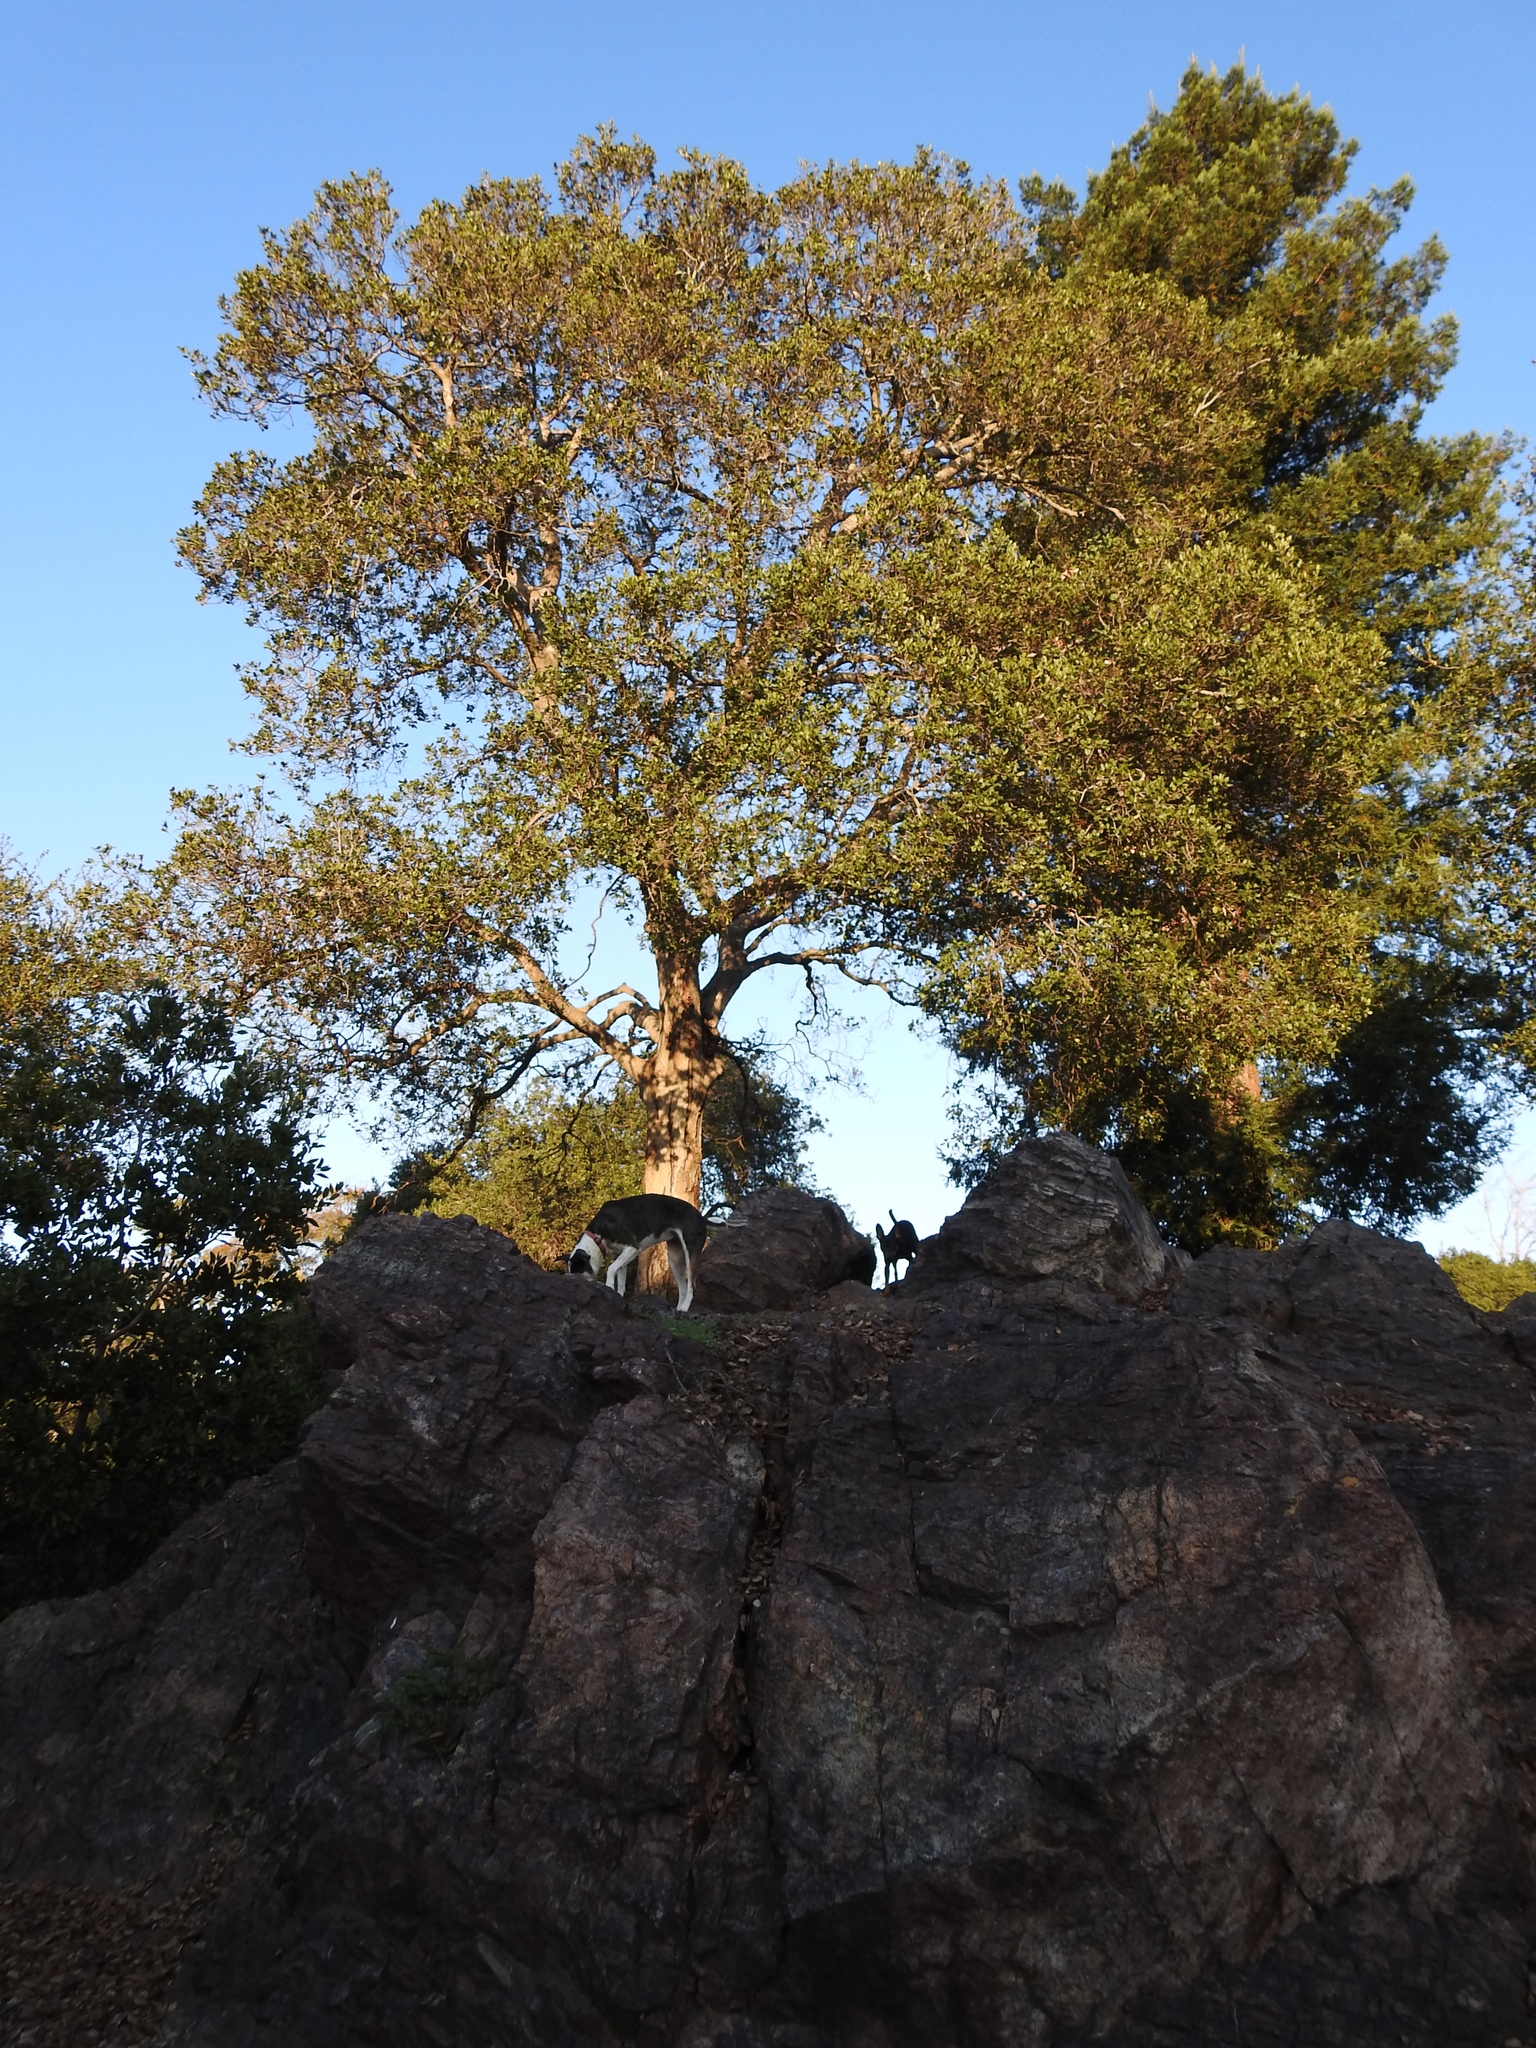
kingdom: Plantae
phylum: Tracheophyta
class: Magnoliopsida
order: Fagales
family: Fagaceae
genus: Quercus
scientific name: Quercus agrifolia
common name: California live oak
